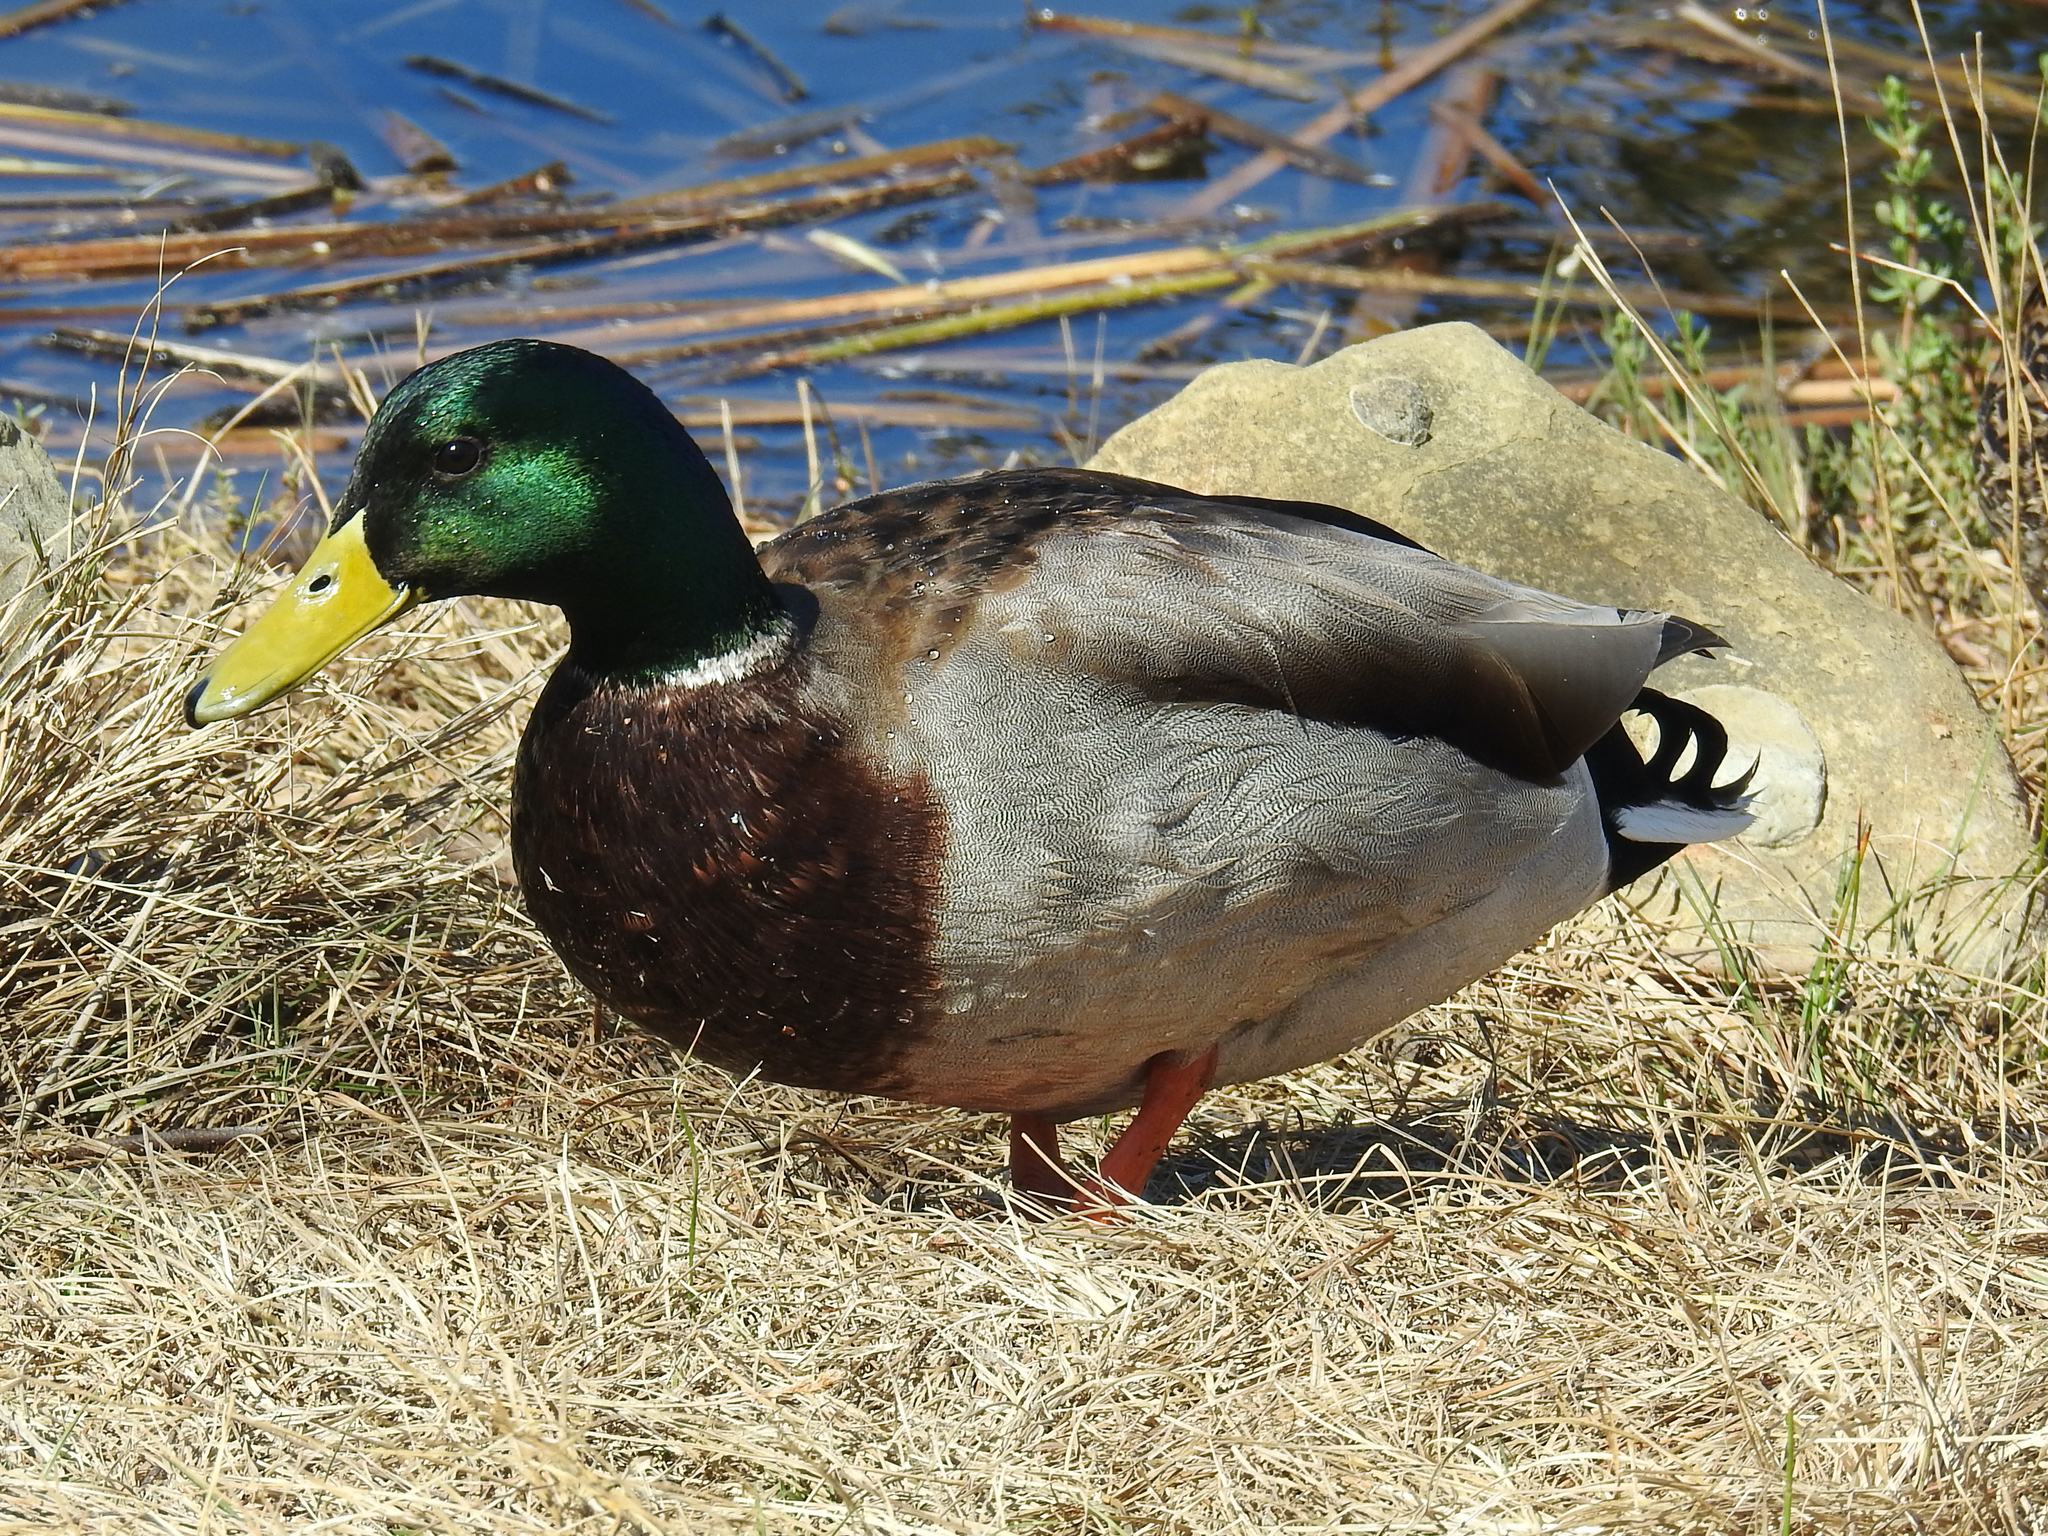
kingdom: Animalia
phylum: Chordata
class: Aves
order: Anseriformes
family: Anatidae
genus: Anas
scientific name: Anas platyrhynchos
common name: Mallard
